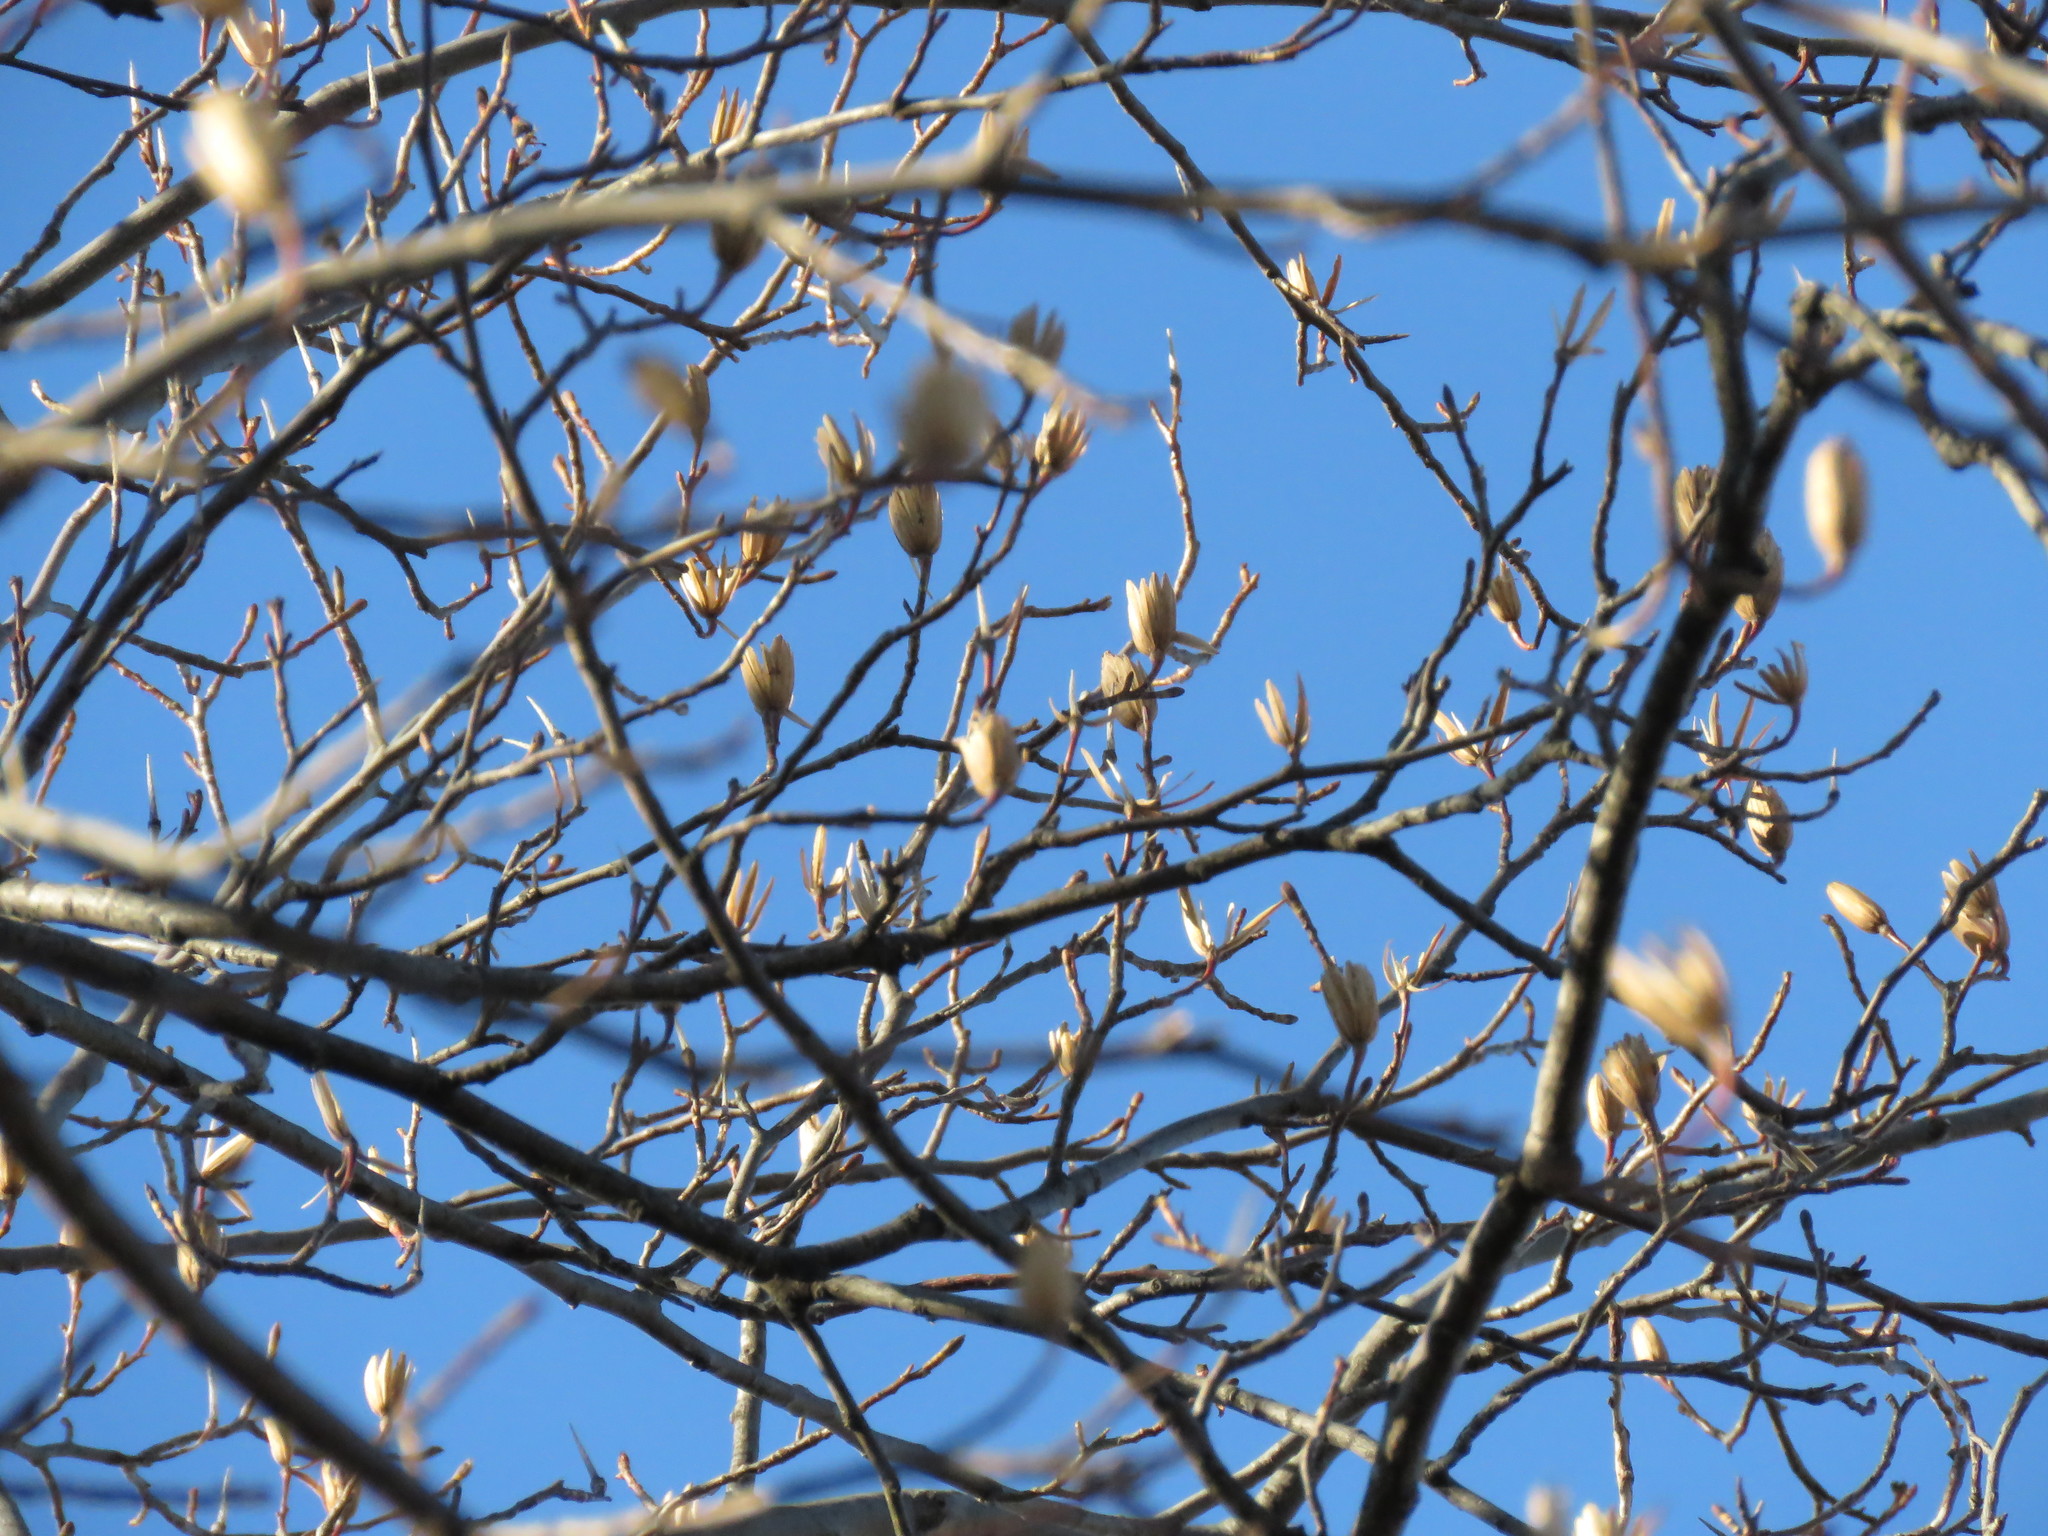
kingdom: Plantae
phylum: Tracheophyta
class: Magnoliopsida
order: Magnoliales
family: Magnoliaceae
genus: Liriodendron
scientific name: Liriodendron tulipifera
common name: Tulip tree
